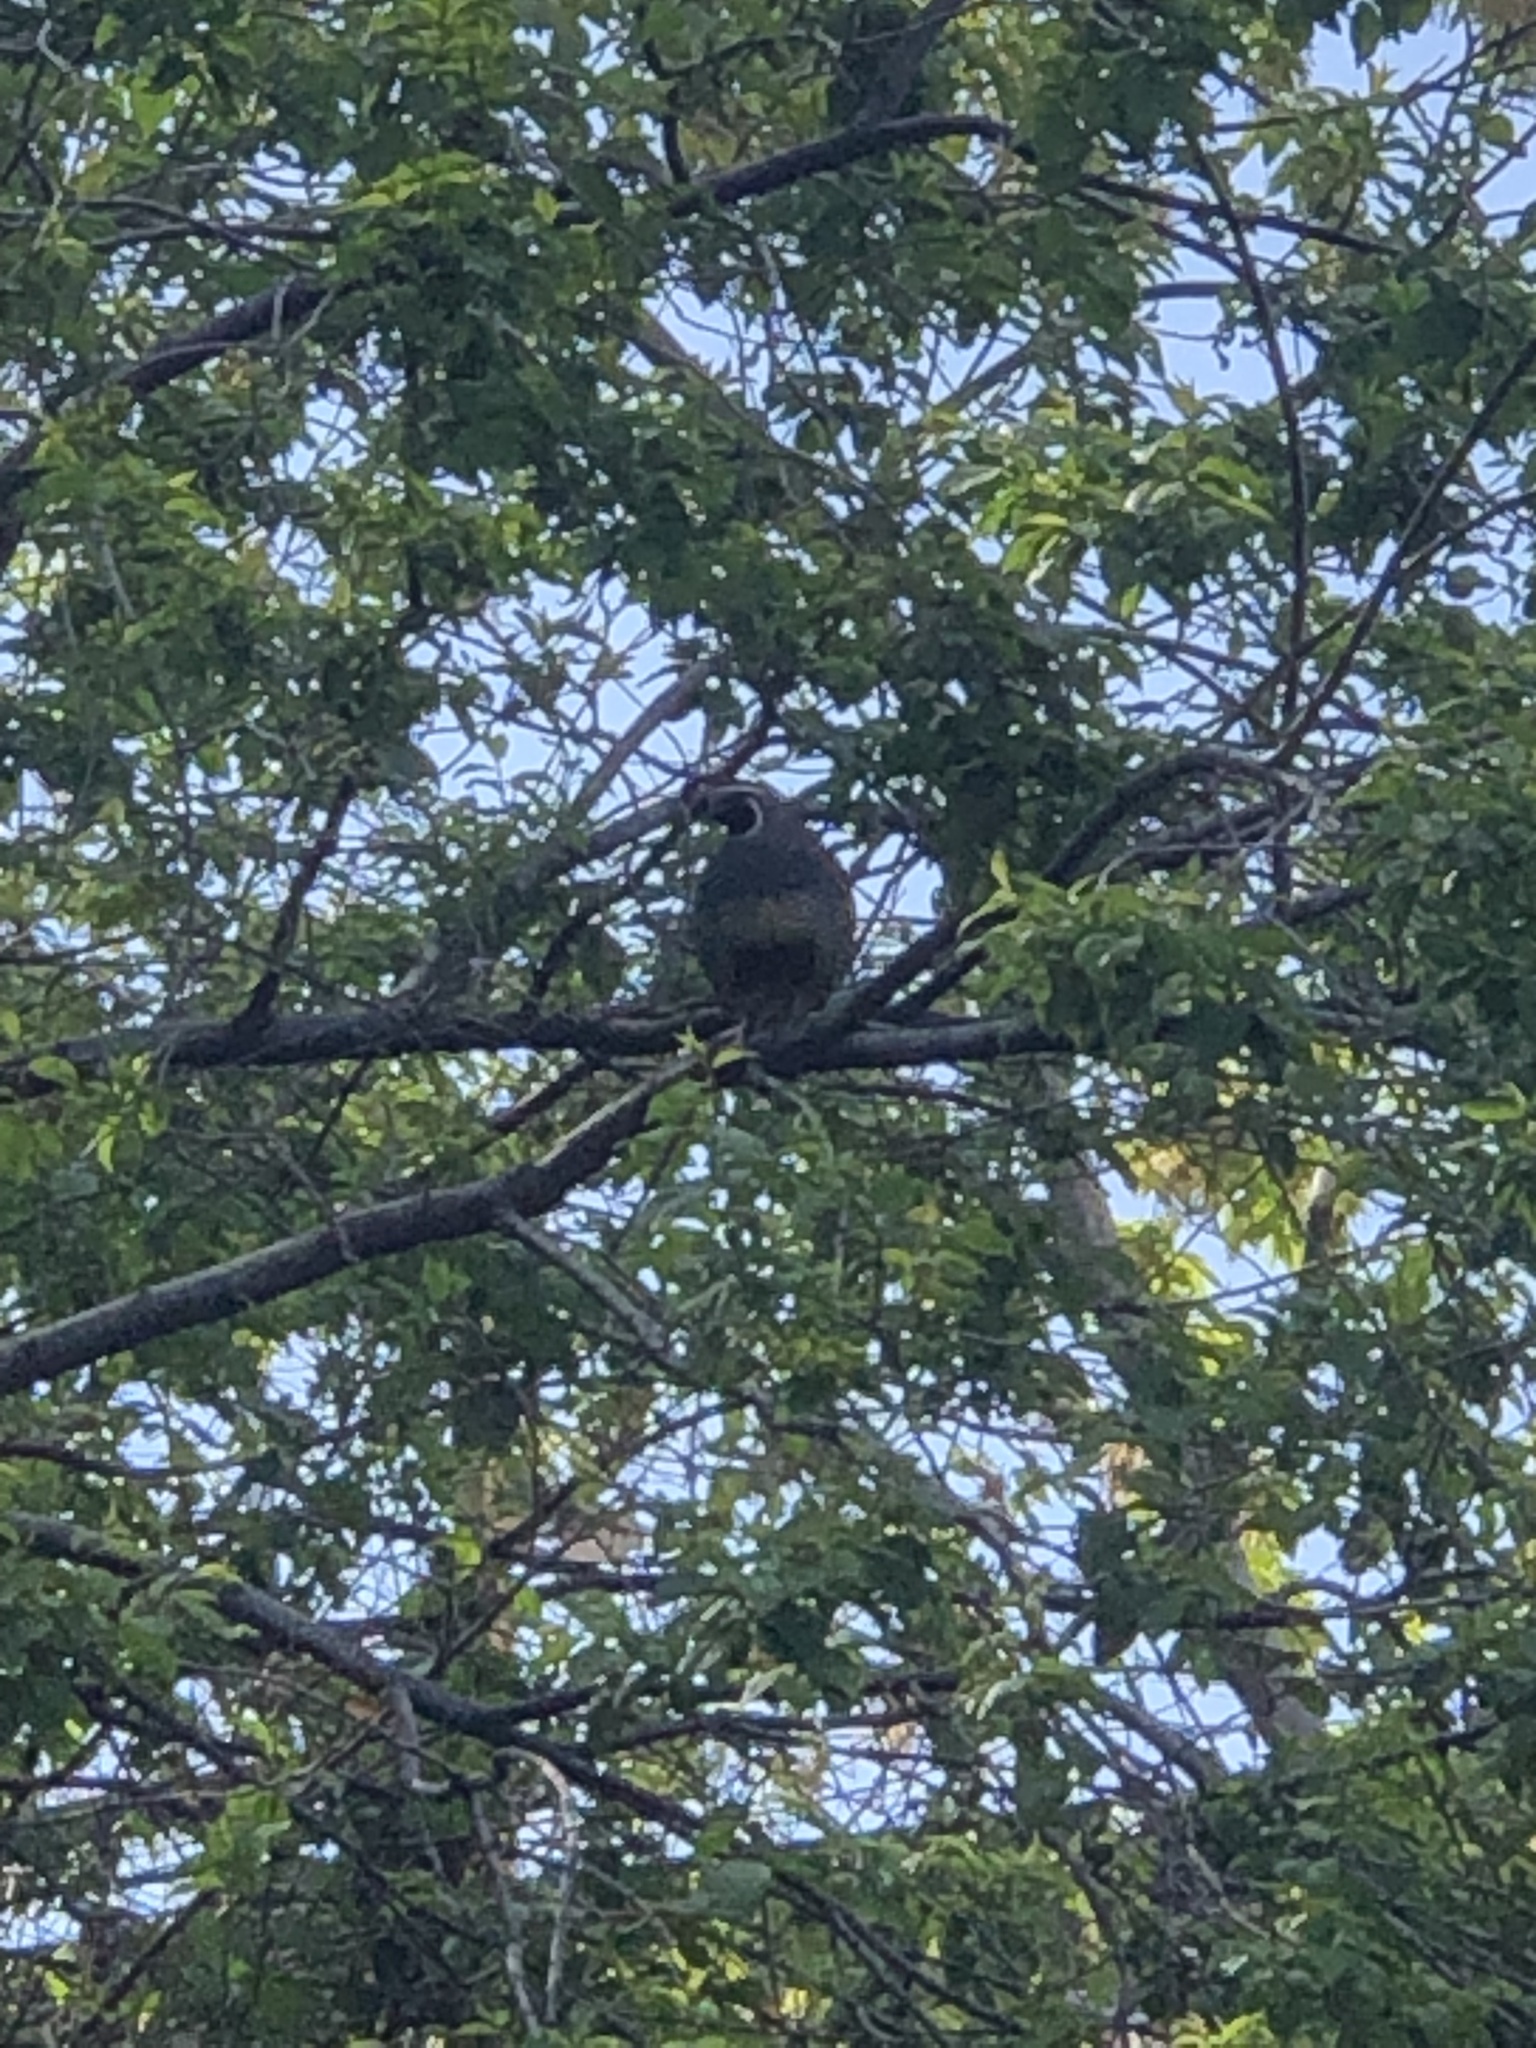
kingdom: Animalia
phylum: Chordata
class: Aves
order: Galliformes
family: Odontophoridae
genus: Callipepla
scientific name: Callipepla californica
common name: California quail
